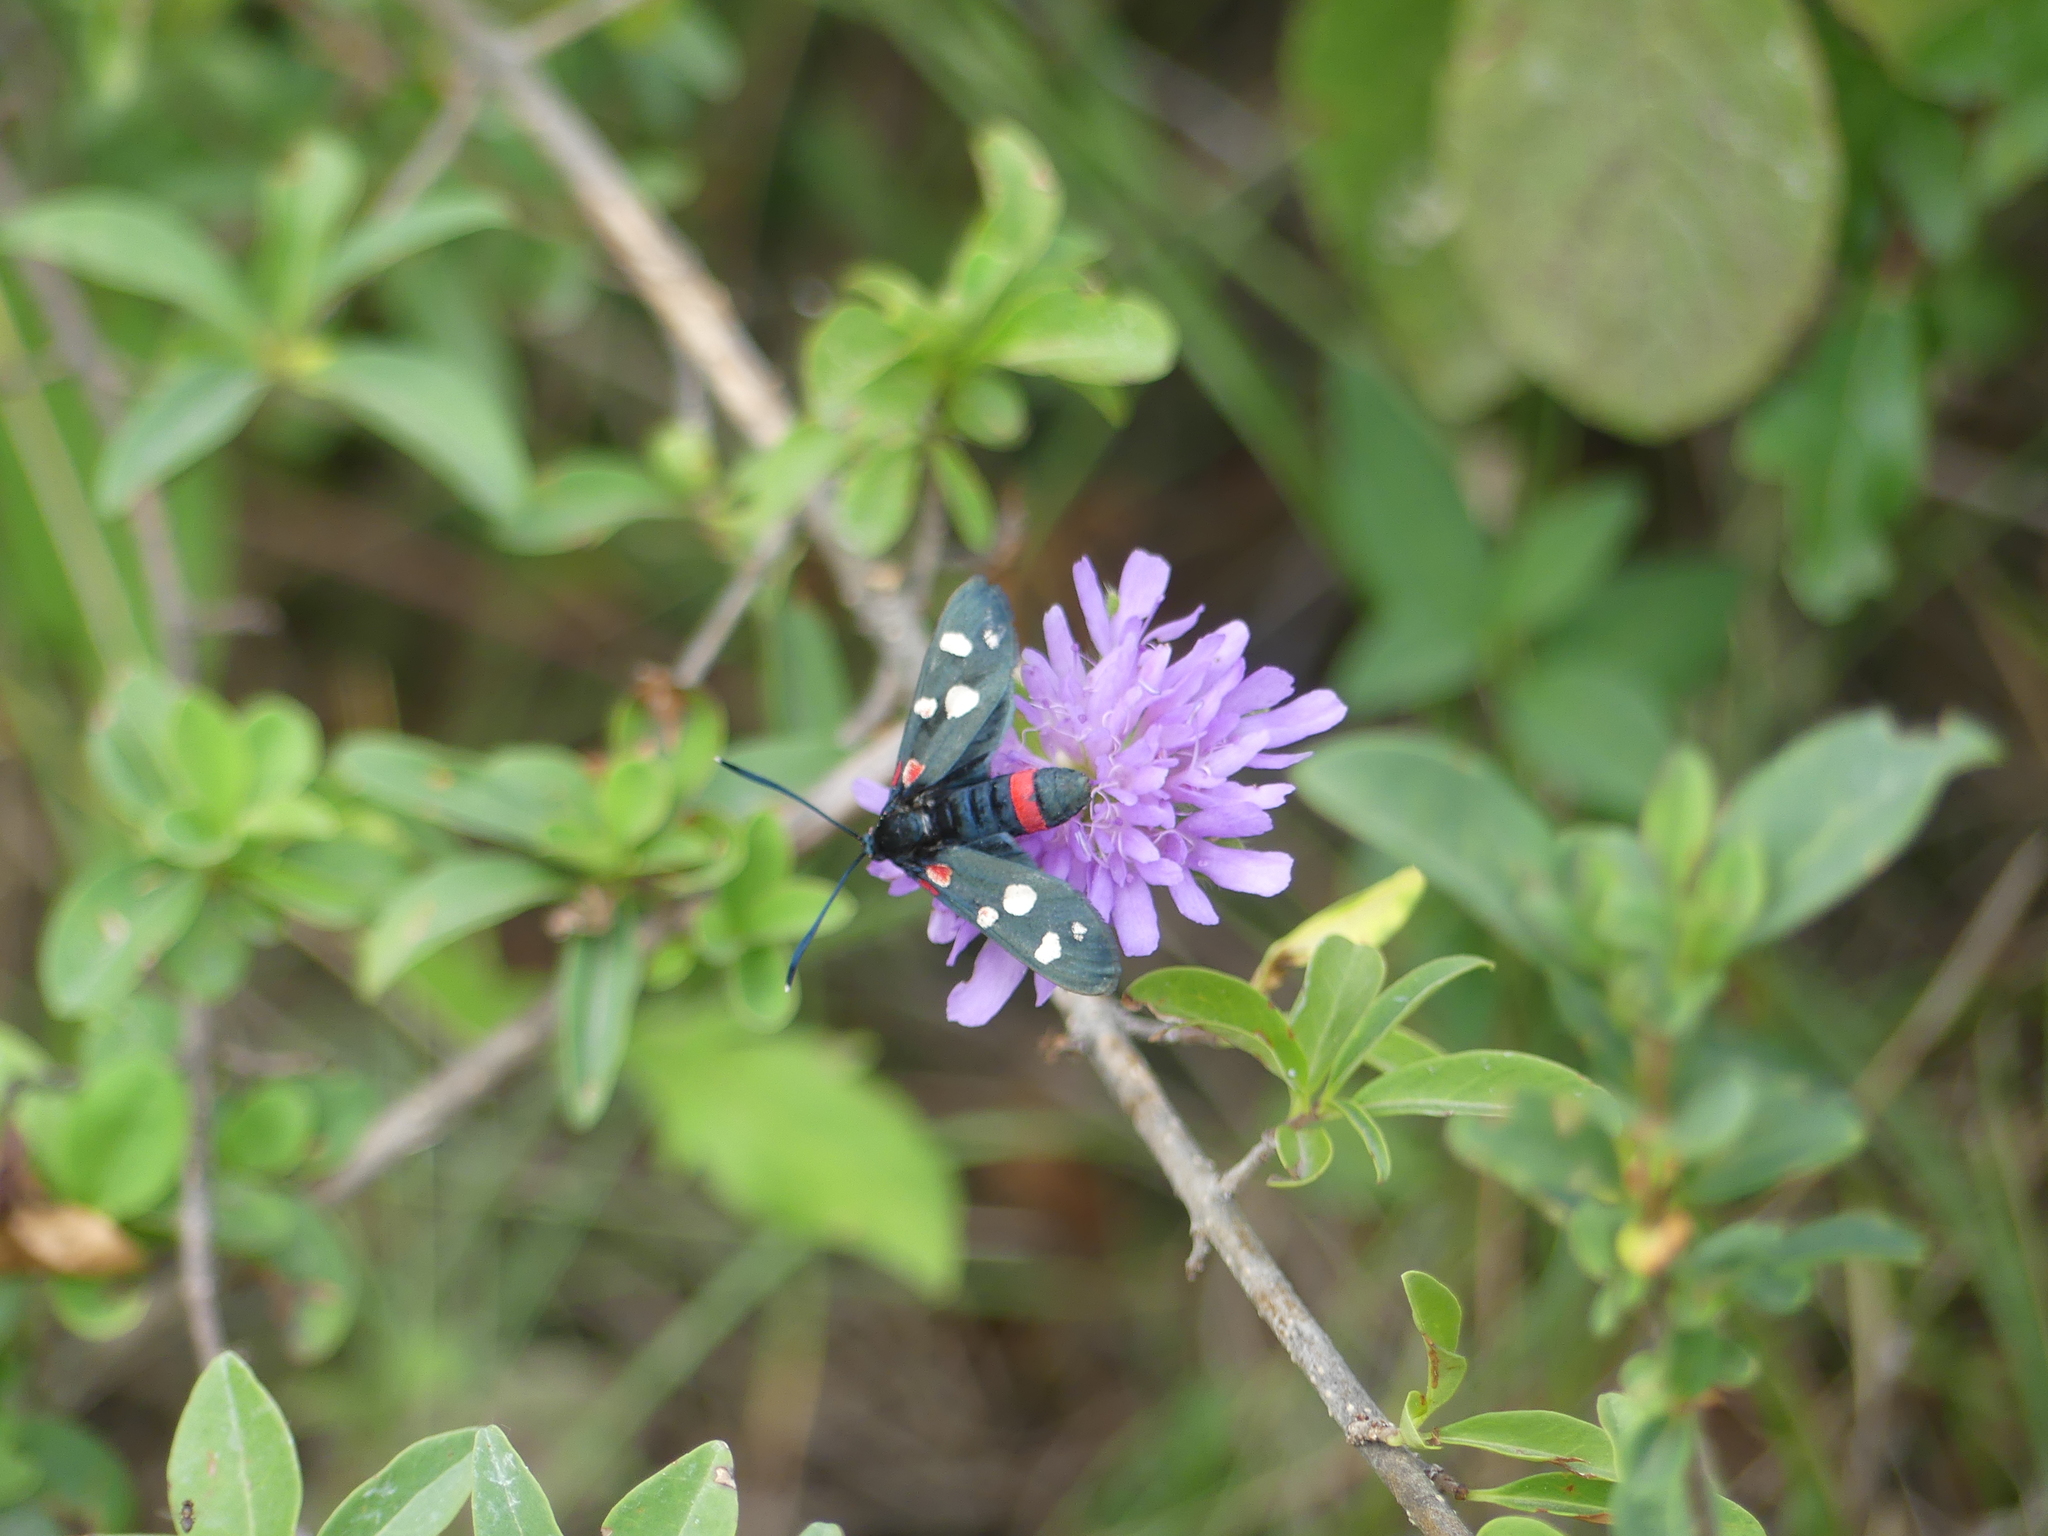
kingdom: Animalia
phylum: Arthropoda
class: Insecta
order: Lepidoptera
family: Zygaenidae
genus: Zygaena
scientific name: Zygaena ephialtes
